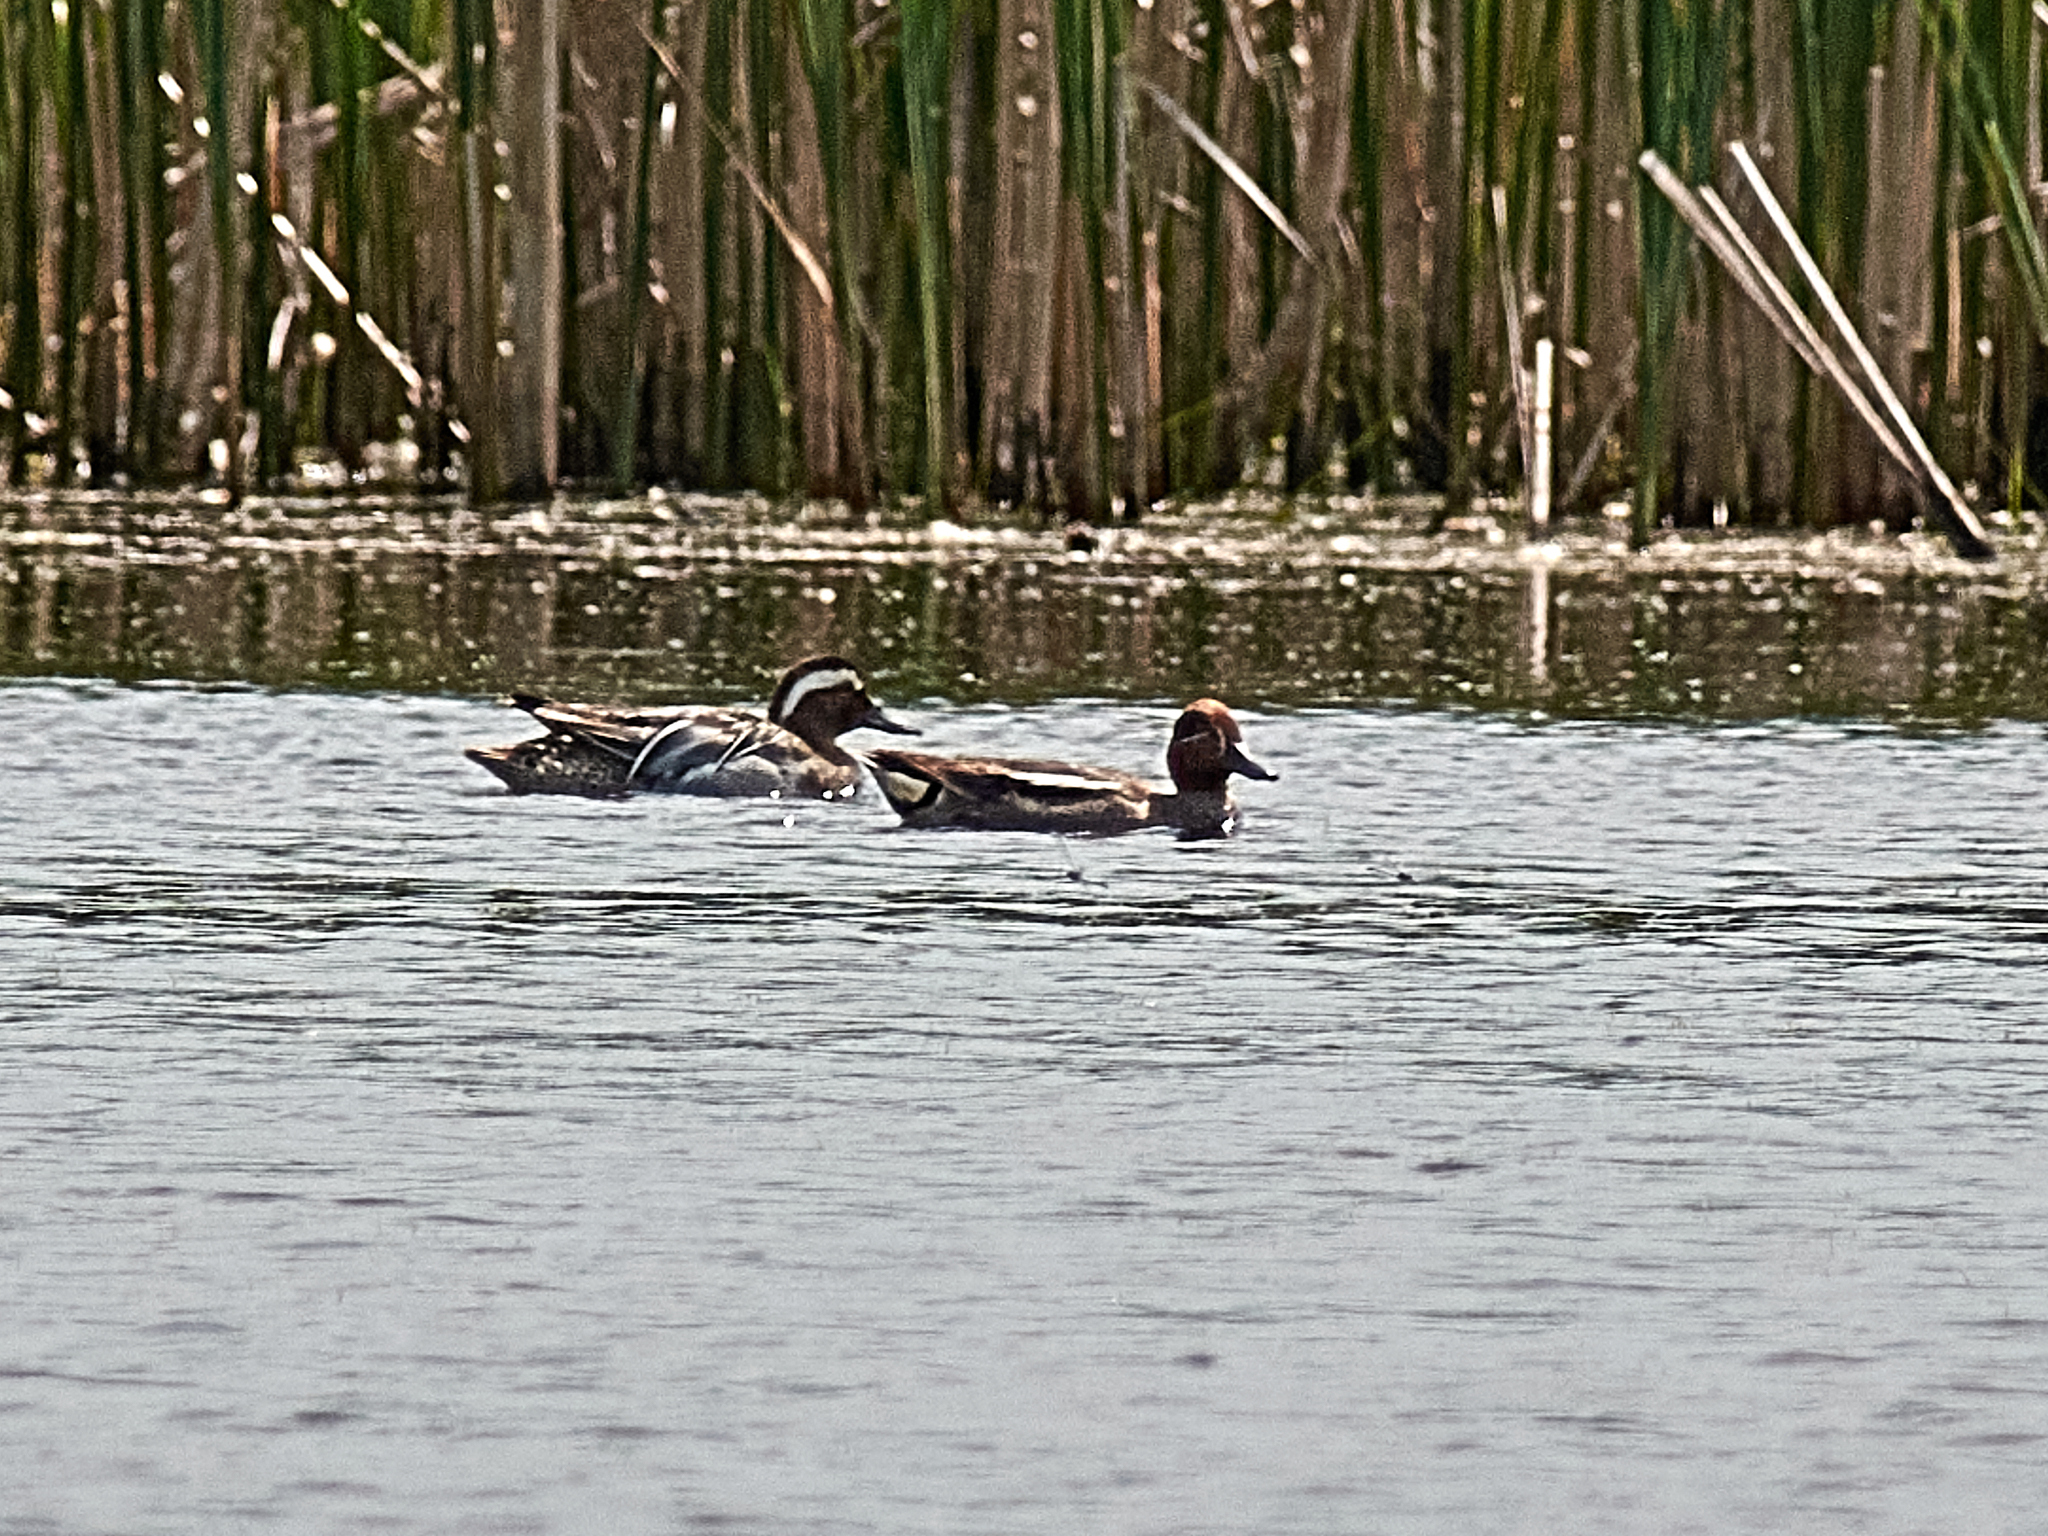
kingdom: Animalia
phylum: Chordata
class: Aves
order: Anseriformes
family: Anatidae
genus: Anas
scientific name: Anas crecca
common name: Eurasian teal
